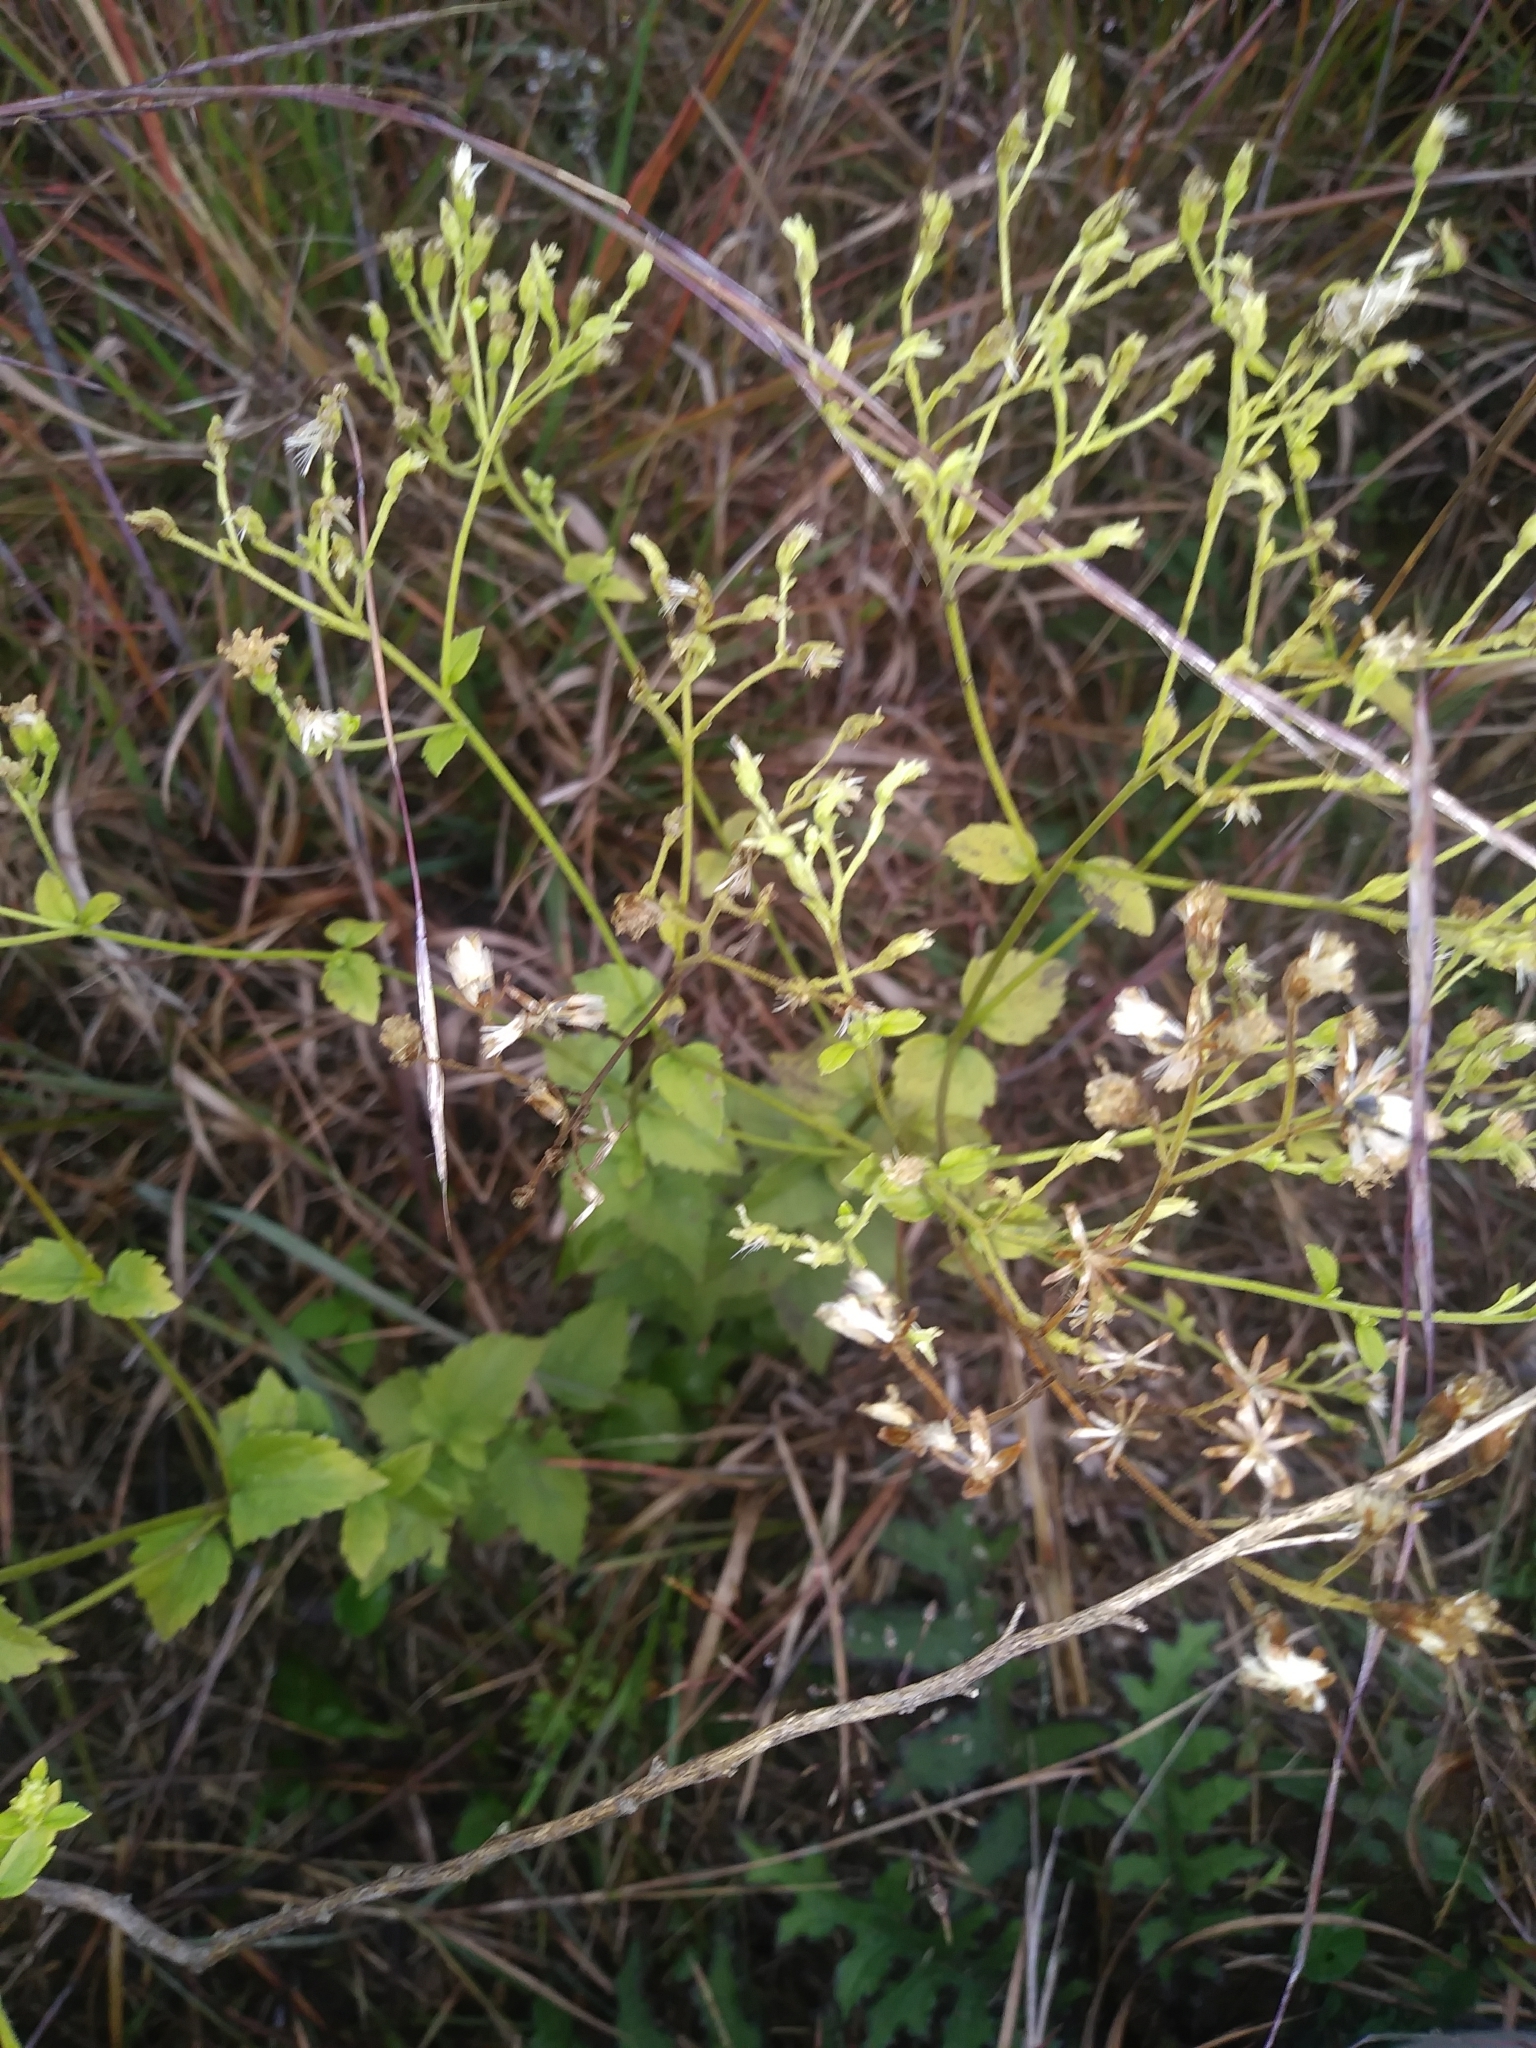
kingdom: Plantae
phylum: Tracheophyta
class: Magnoliopsida
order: Asterales
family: Asteraceae
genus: Ageratina
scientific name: Ageratina aromatica
